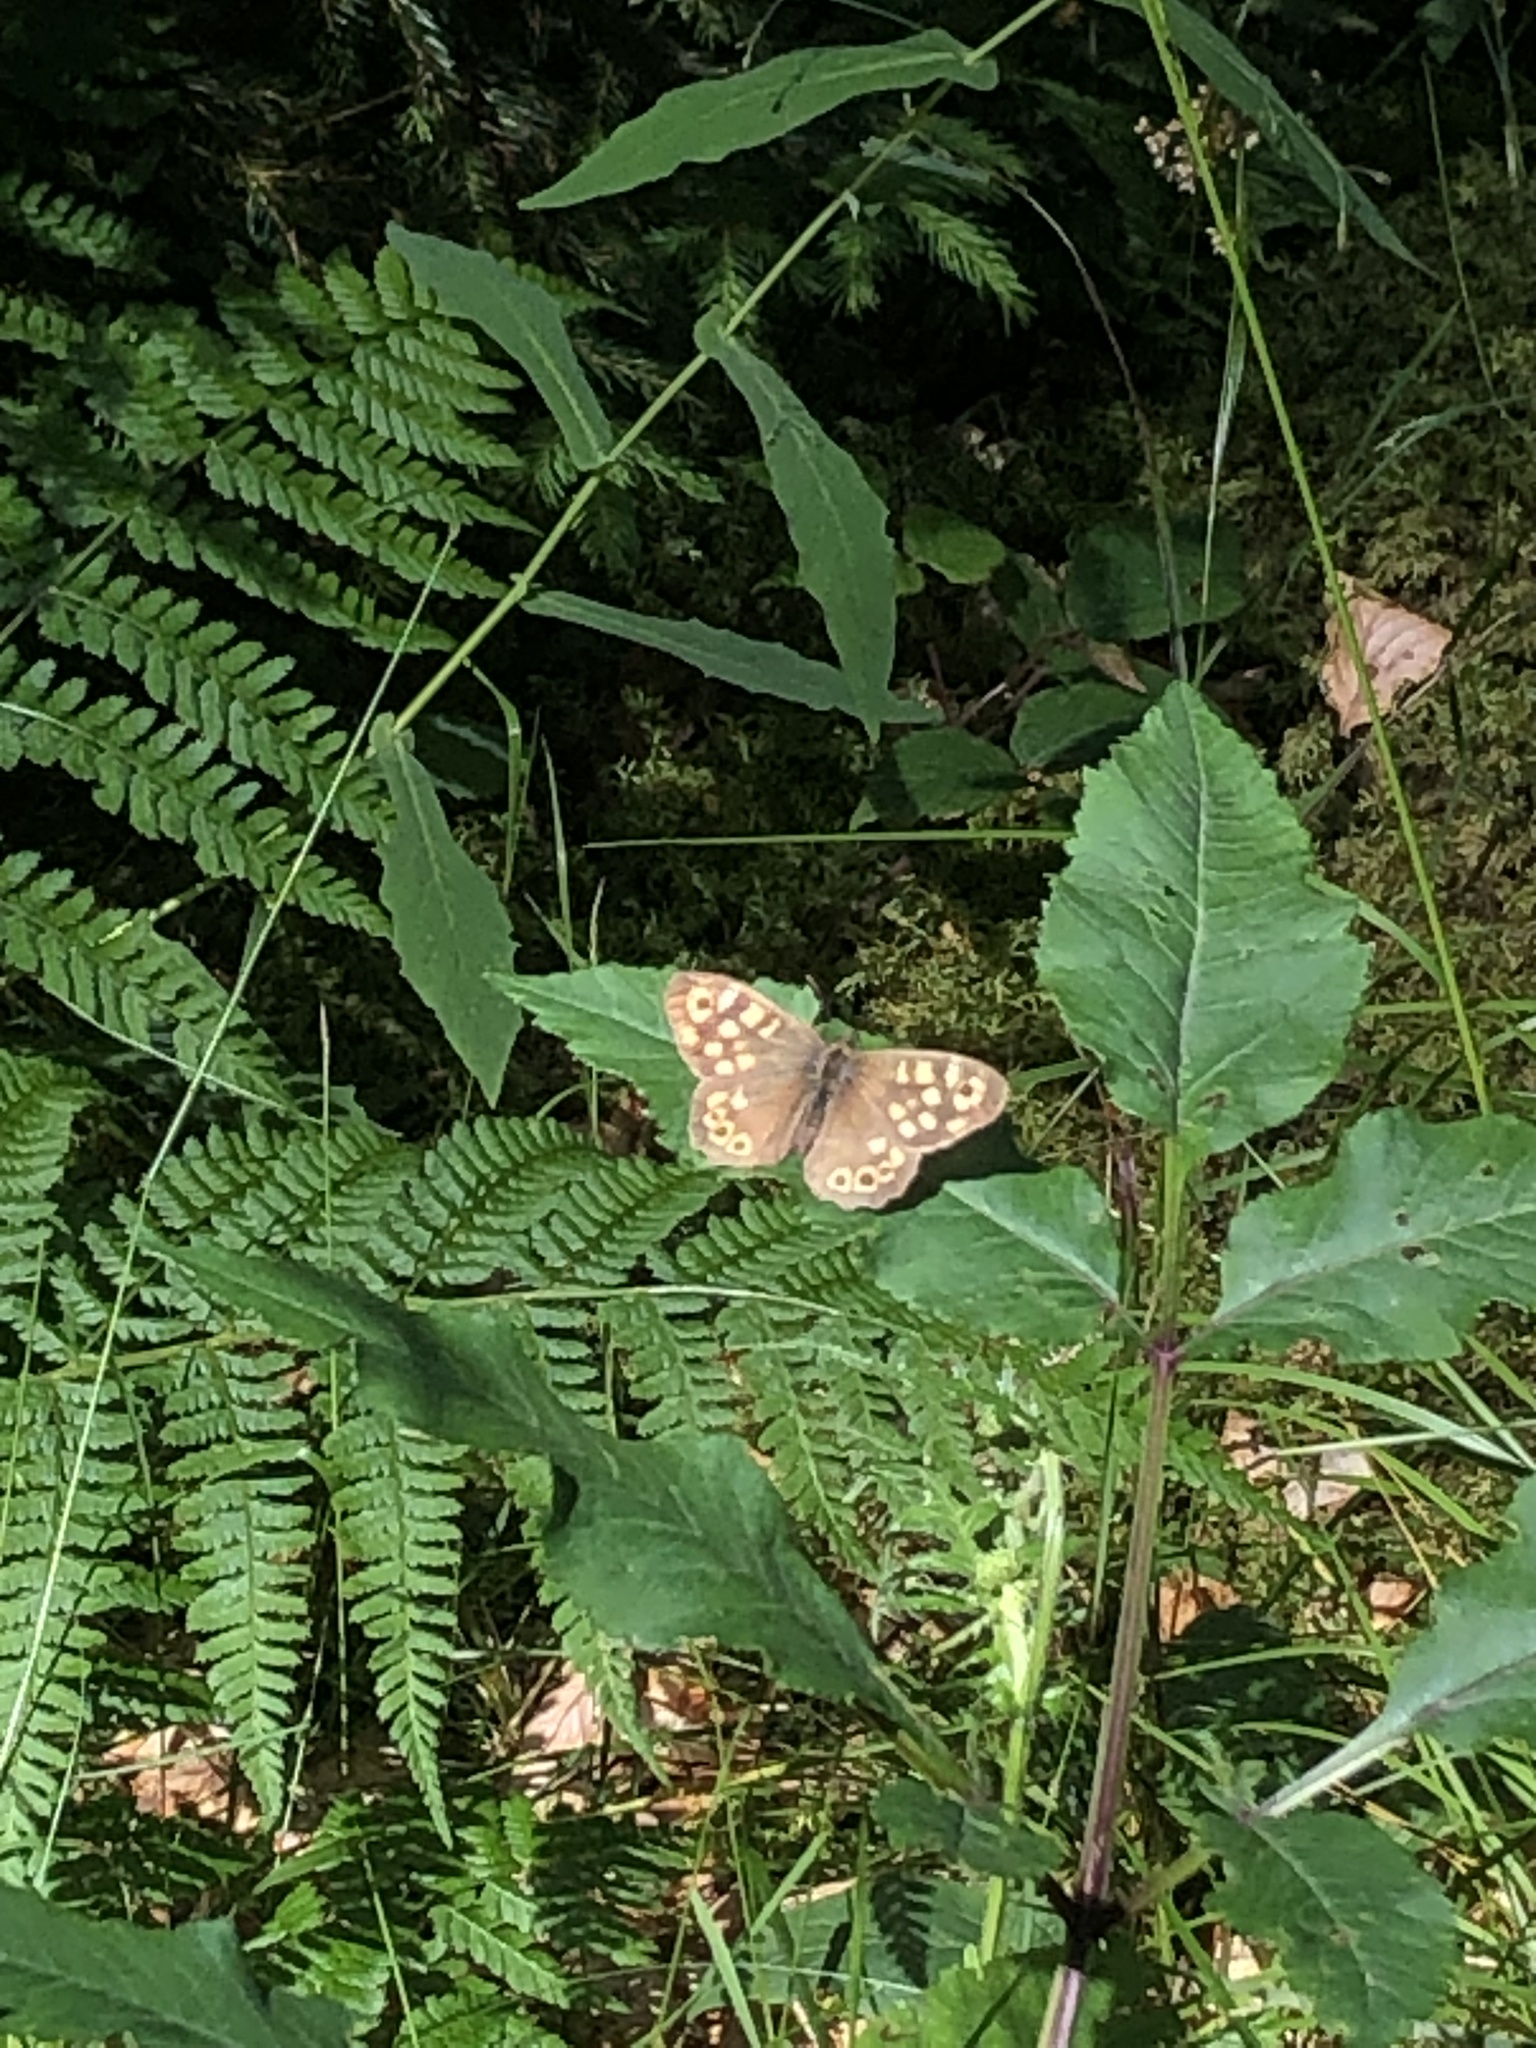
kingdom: Animalia
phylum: Arthropoda
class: Insecta
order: Lepidoptera
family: Nymphalidae
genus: Pararge
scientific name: Pararge aegeria
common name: Speckled wood
